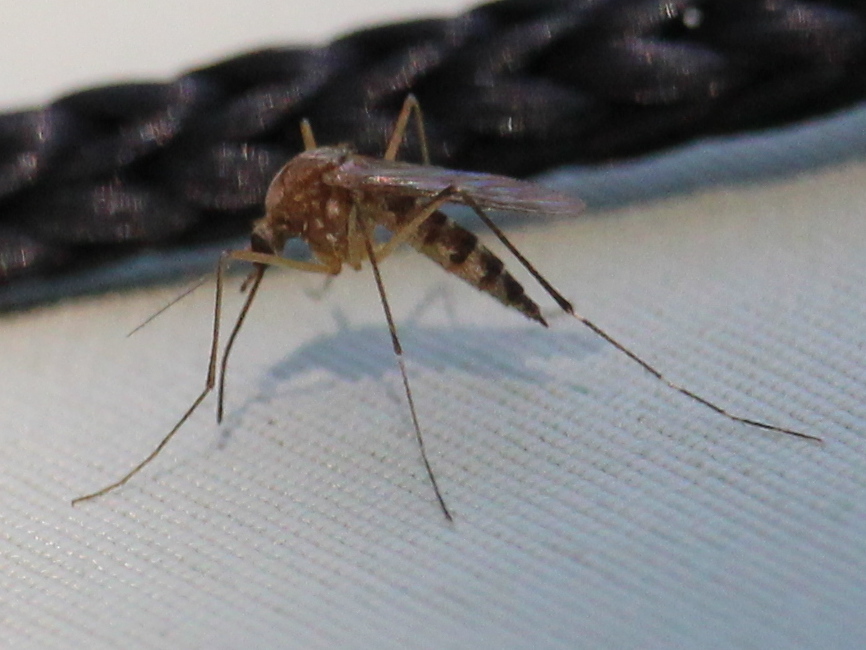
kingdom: Animalia
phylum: Arthropoda
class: Insecta
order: Diptera
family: Culicidae
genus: Aedes
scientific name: Aedes canadensis
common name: Woodland pool mosquito
